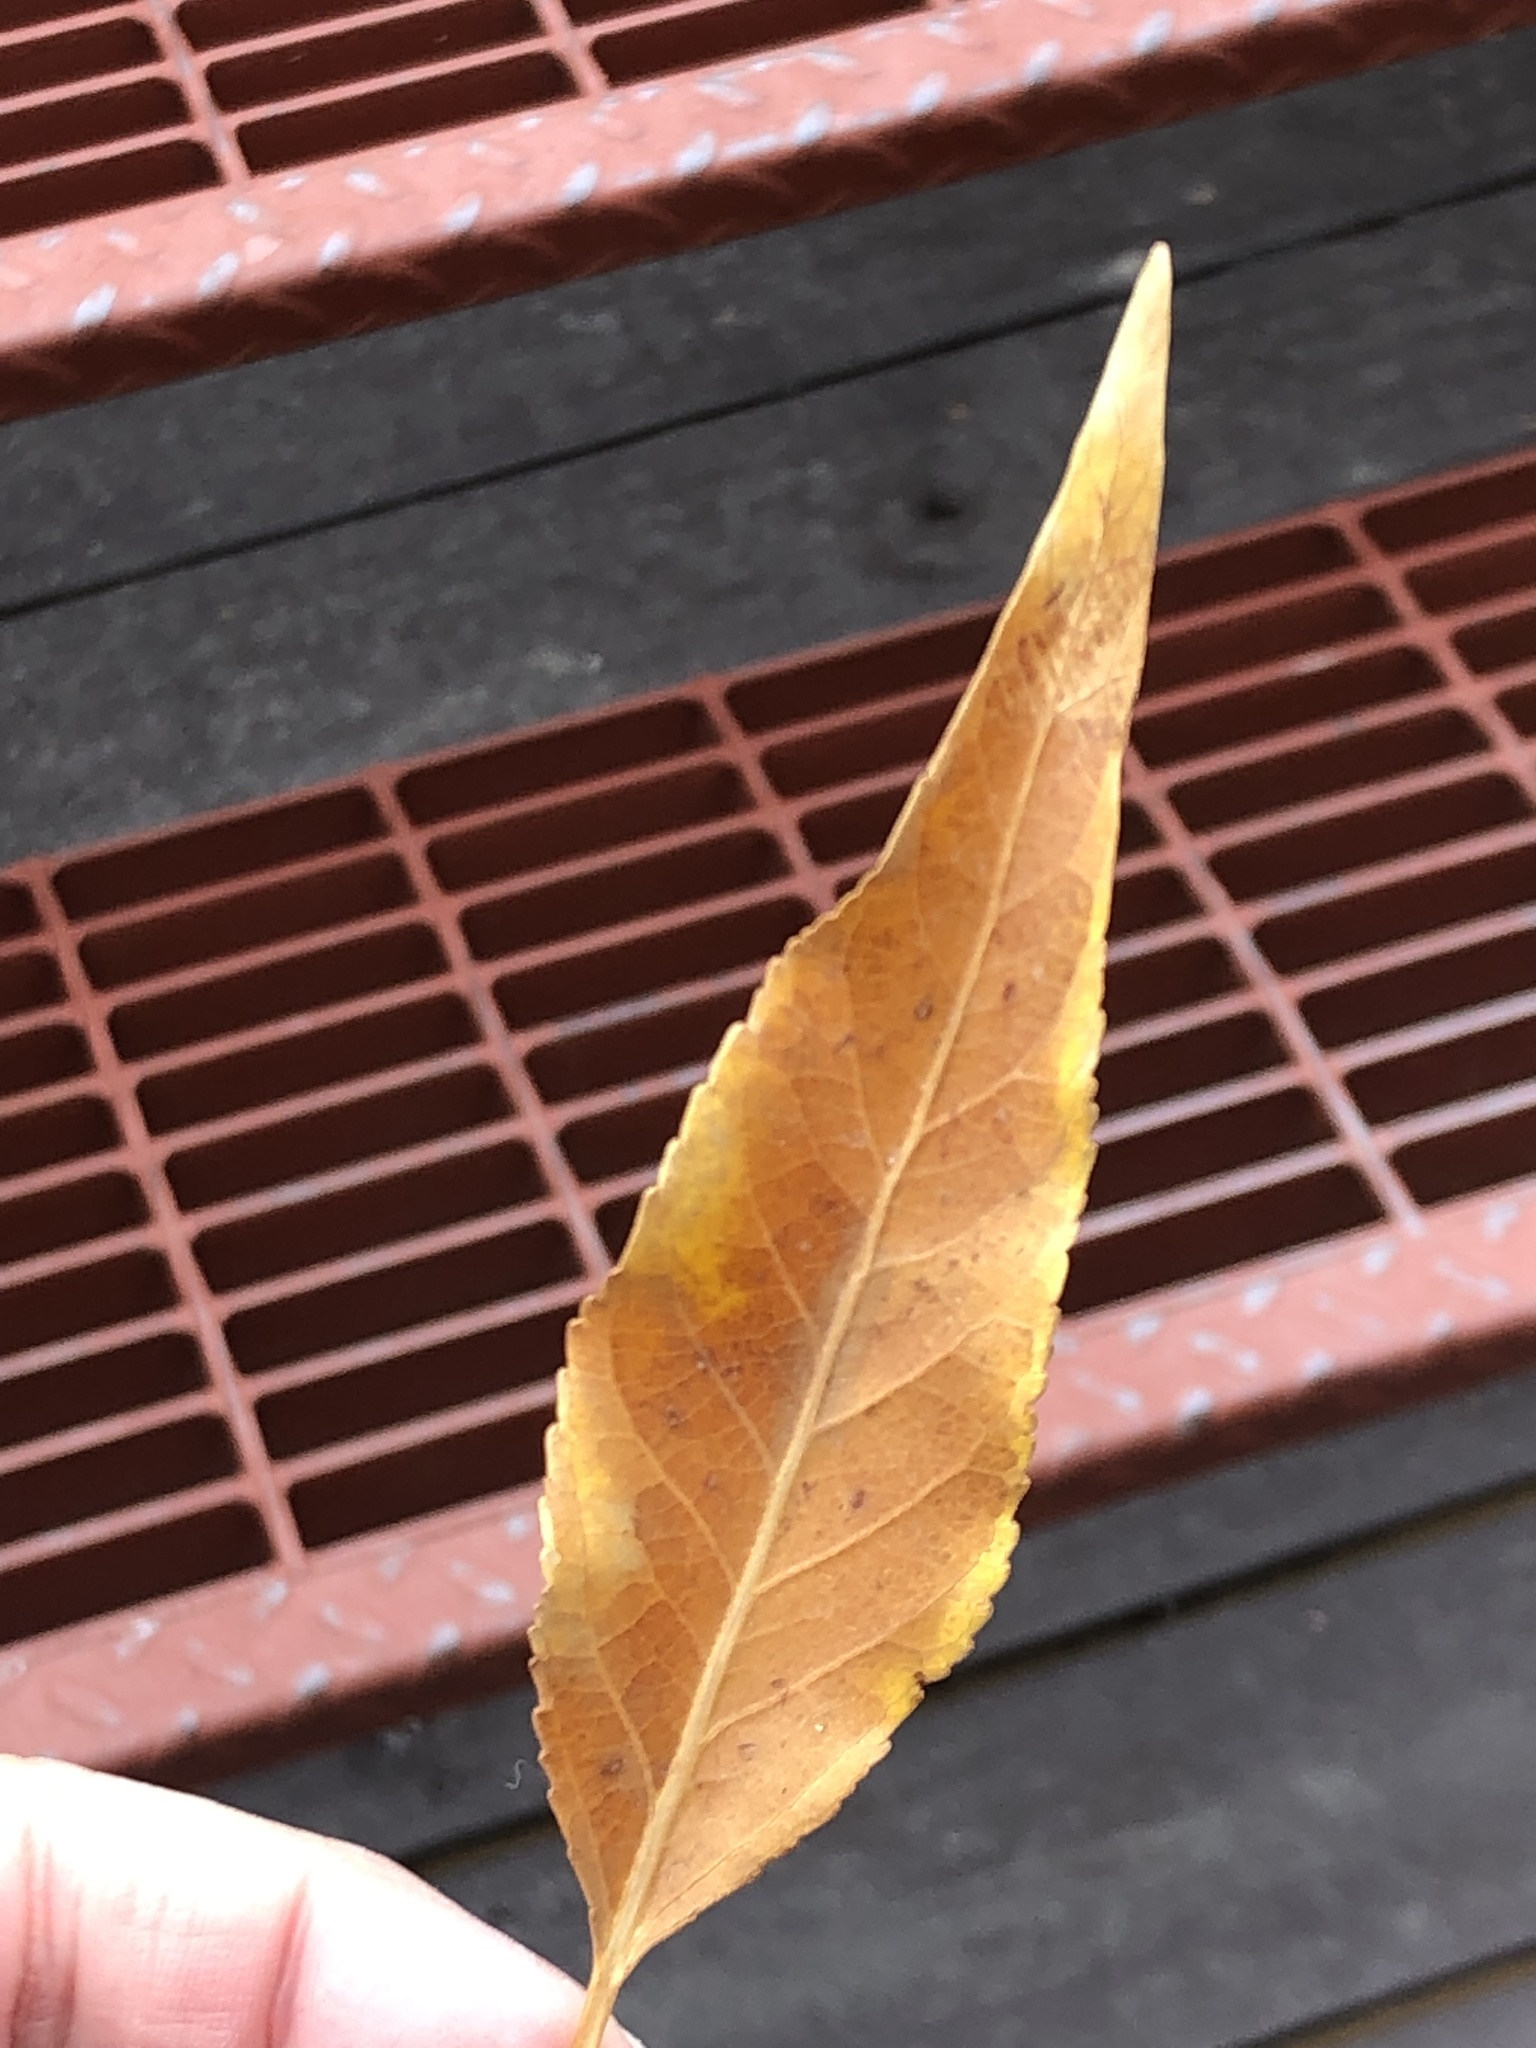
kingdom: Plantae
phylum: Tracheophyta
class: Magnoliopsida
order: Malpighiales
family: Salicaceae
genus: Populus
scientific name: Populus angustifolia
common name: Willow cottonwood
